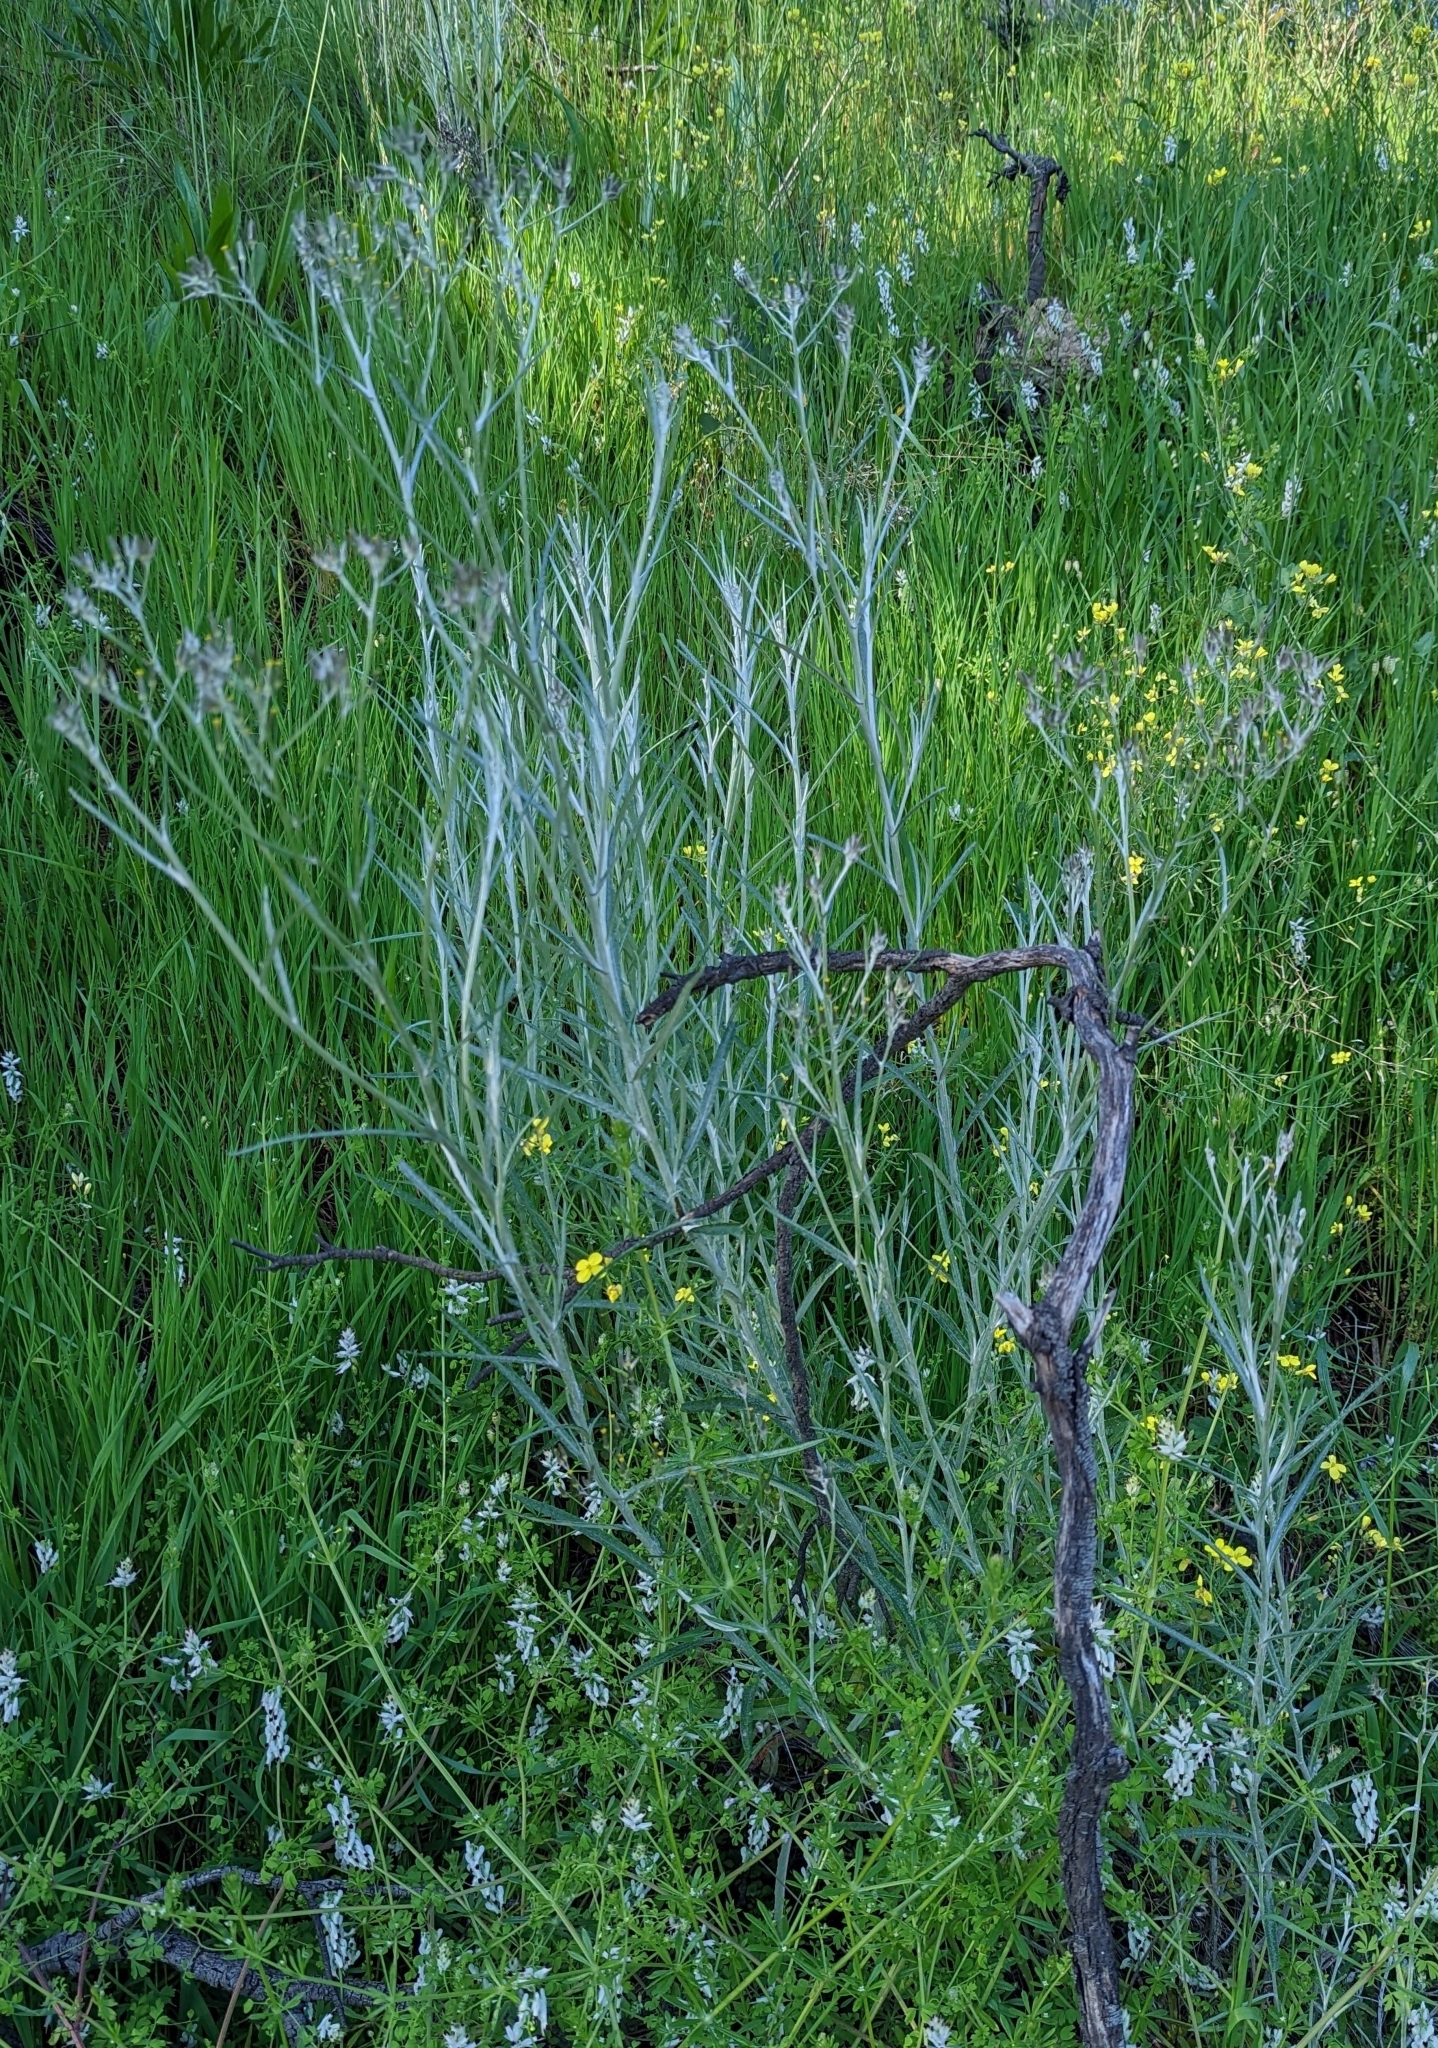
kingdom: Plantae
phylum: Tracheophyta
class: Magnoliopsida
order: Asterales
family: Asteraceae
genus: Senecio
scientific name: Senecio quadridentatus
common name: Cotton fireweed
